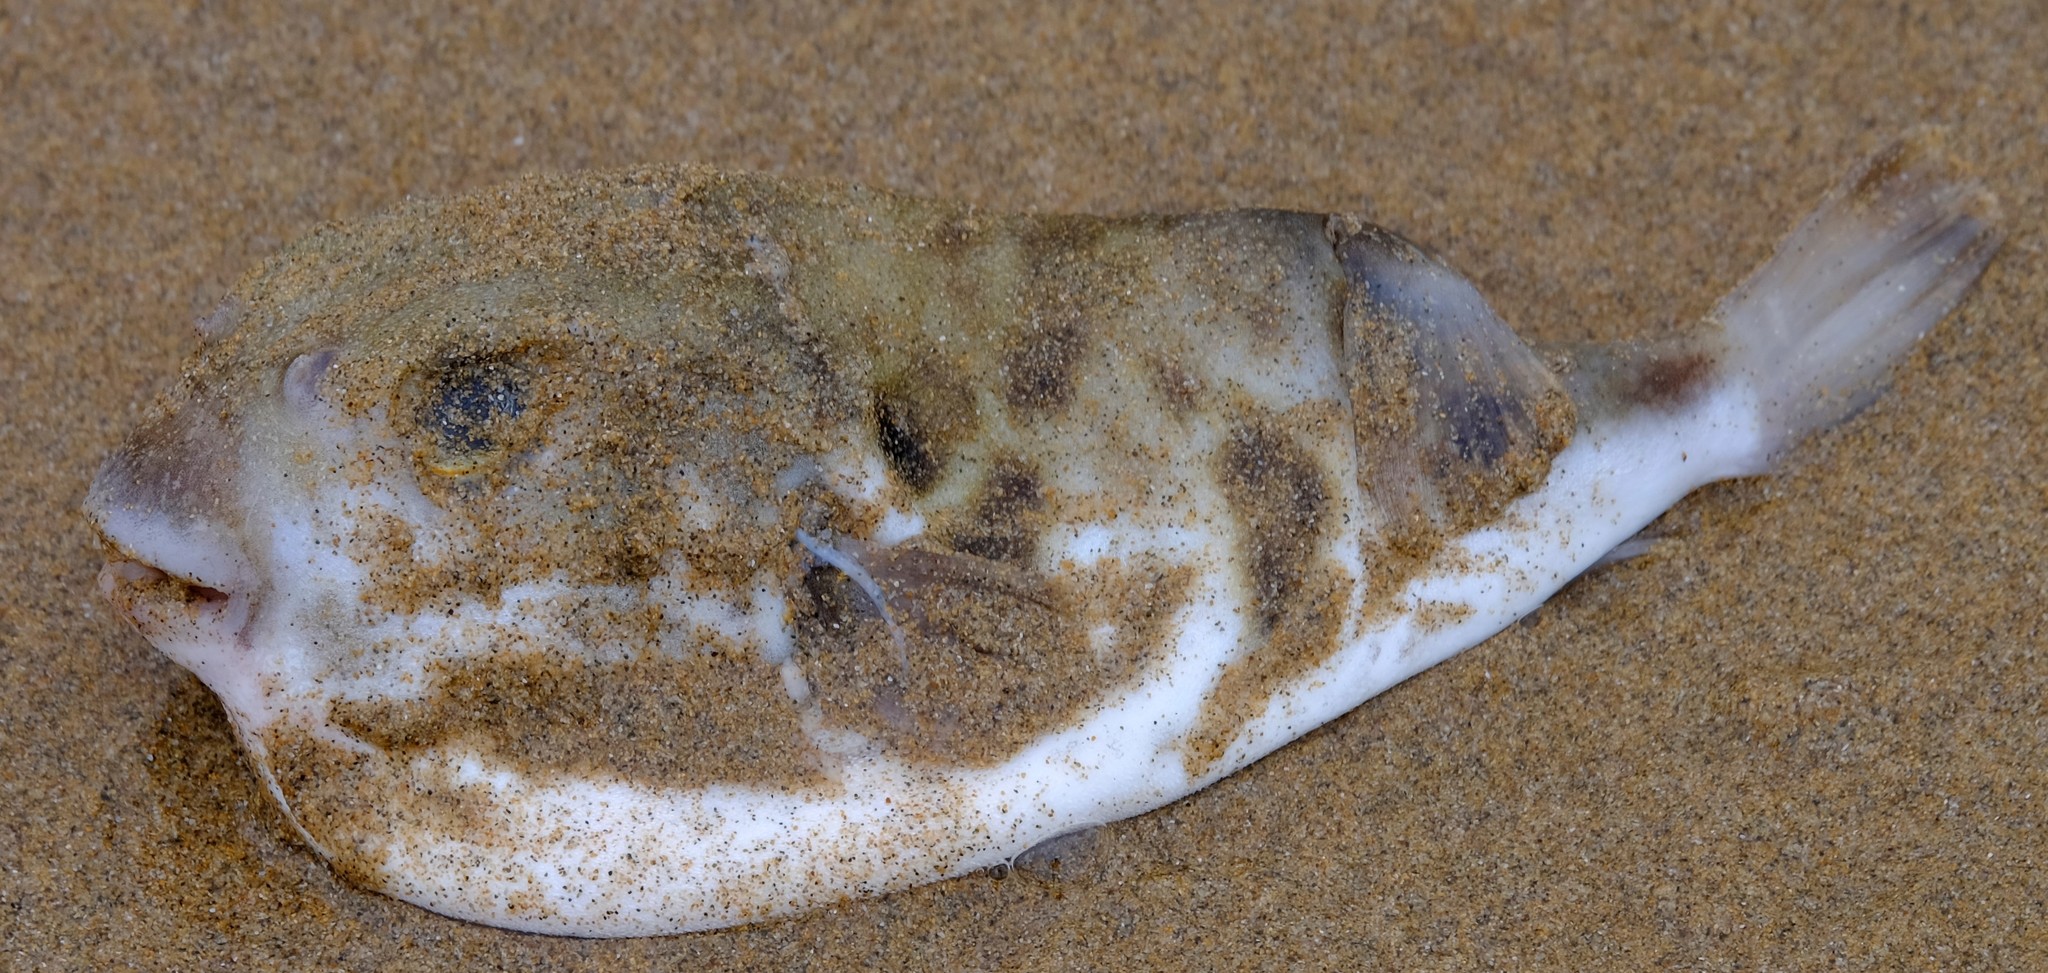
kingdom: Animalia
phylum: Chordata
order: Tetraodontiformes
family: Tetraodontidae
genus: Contusus
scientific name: Contusus brevicaudus
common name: Prickly toadfish
